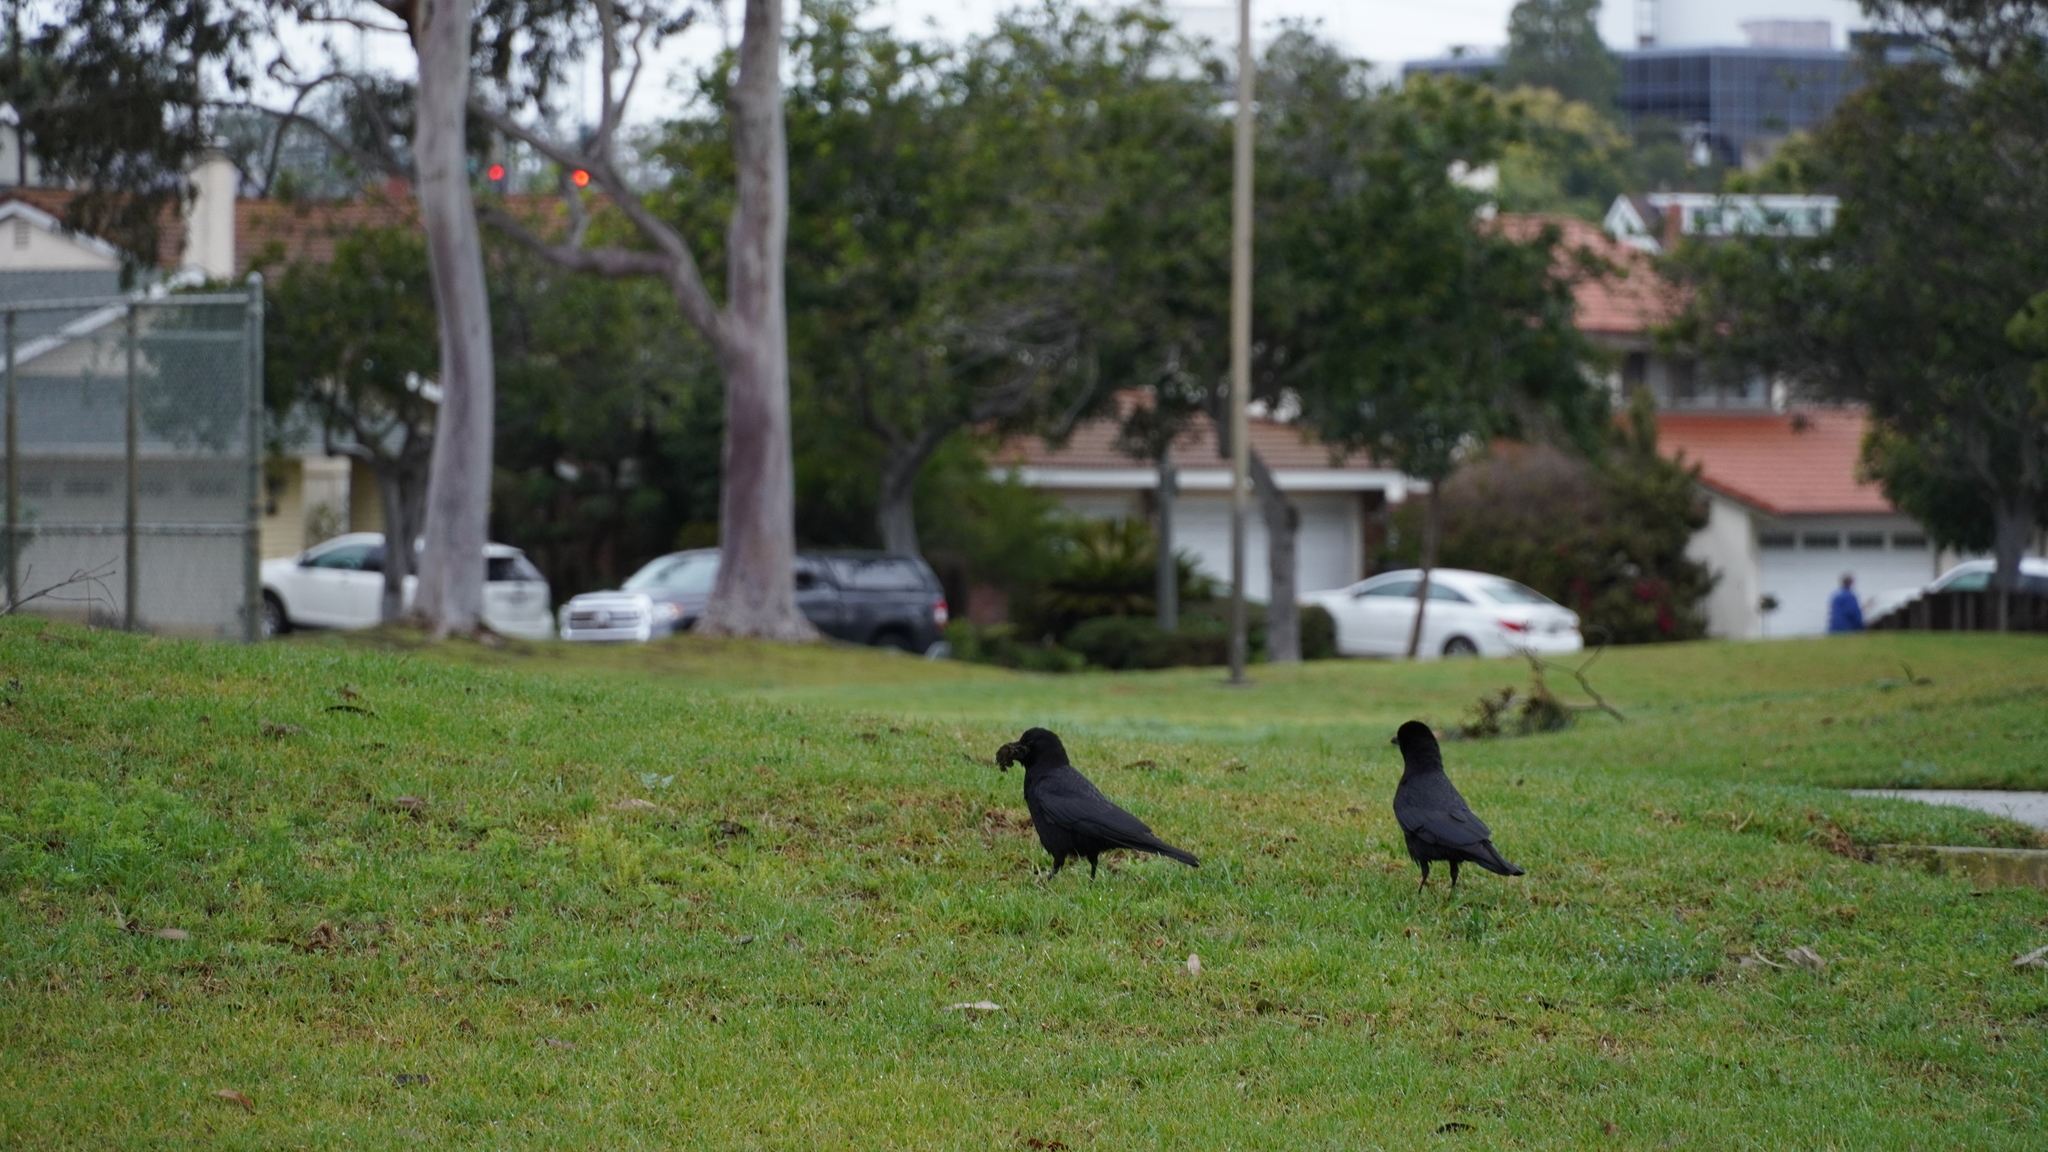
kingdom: Animalia
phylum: Chordata
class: Aves
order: Passeriformes
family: Corvidae
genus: Corvus
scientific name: Corvus brachyrhynchos
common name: American crow
